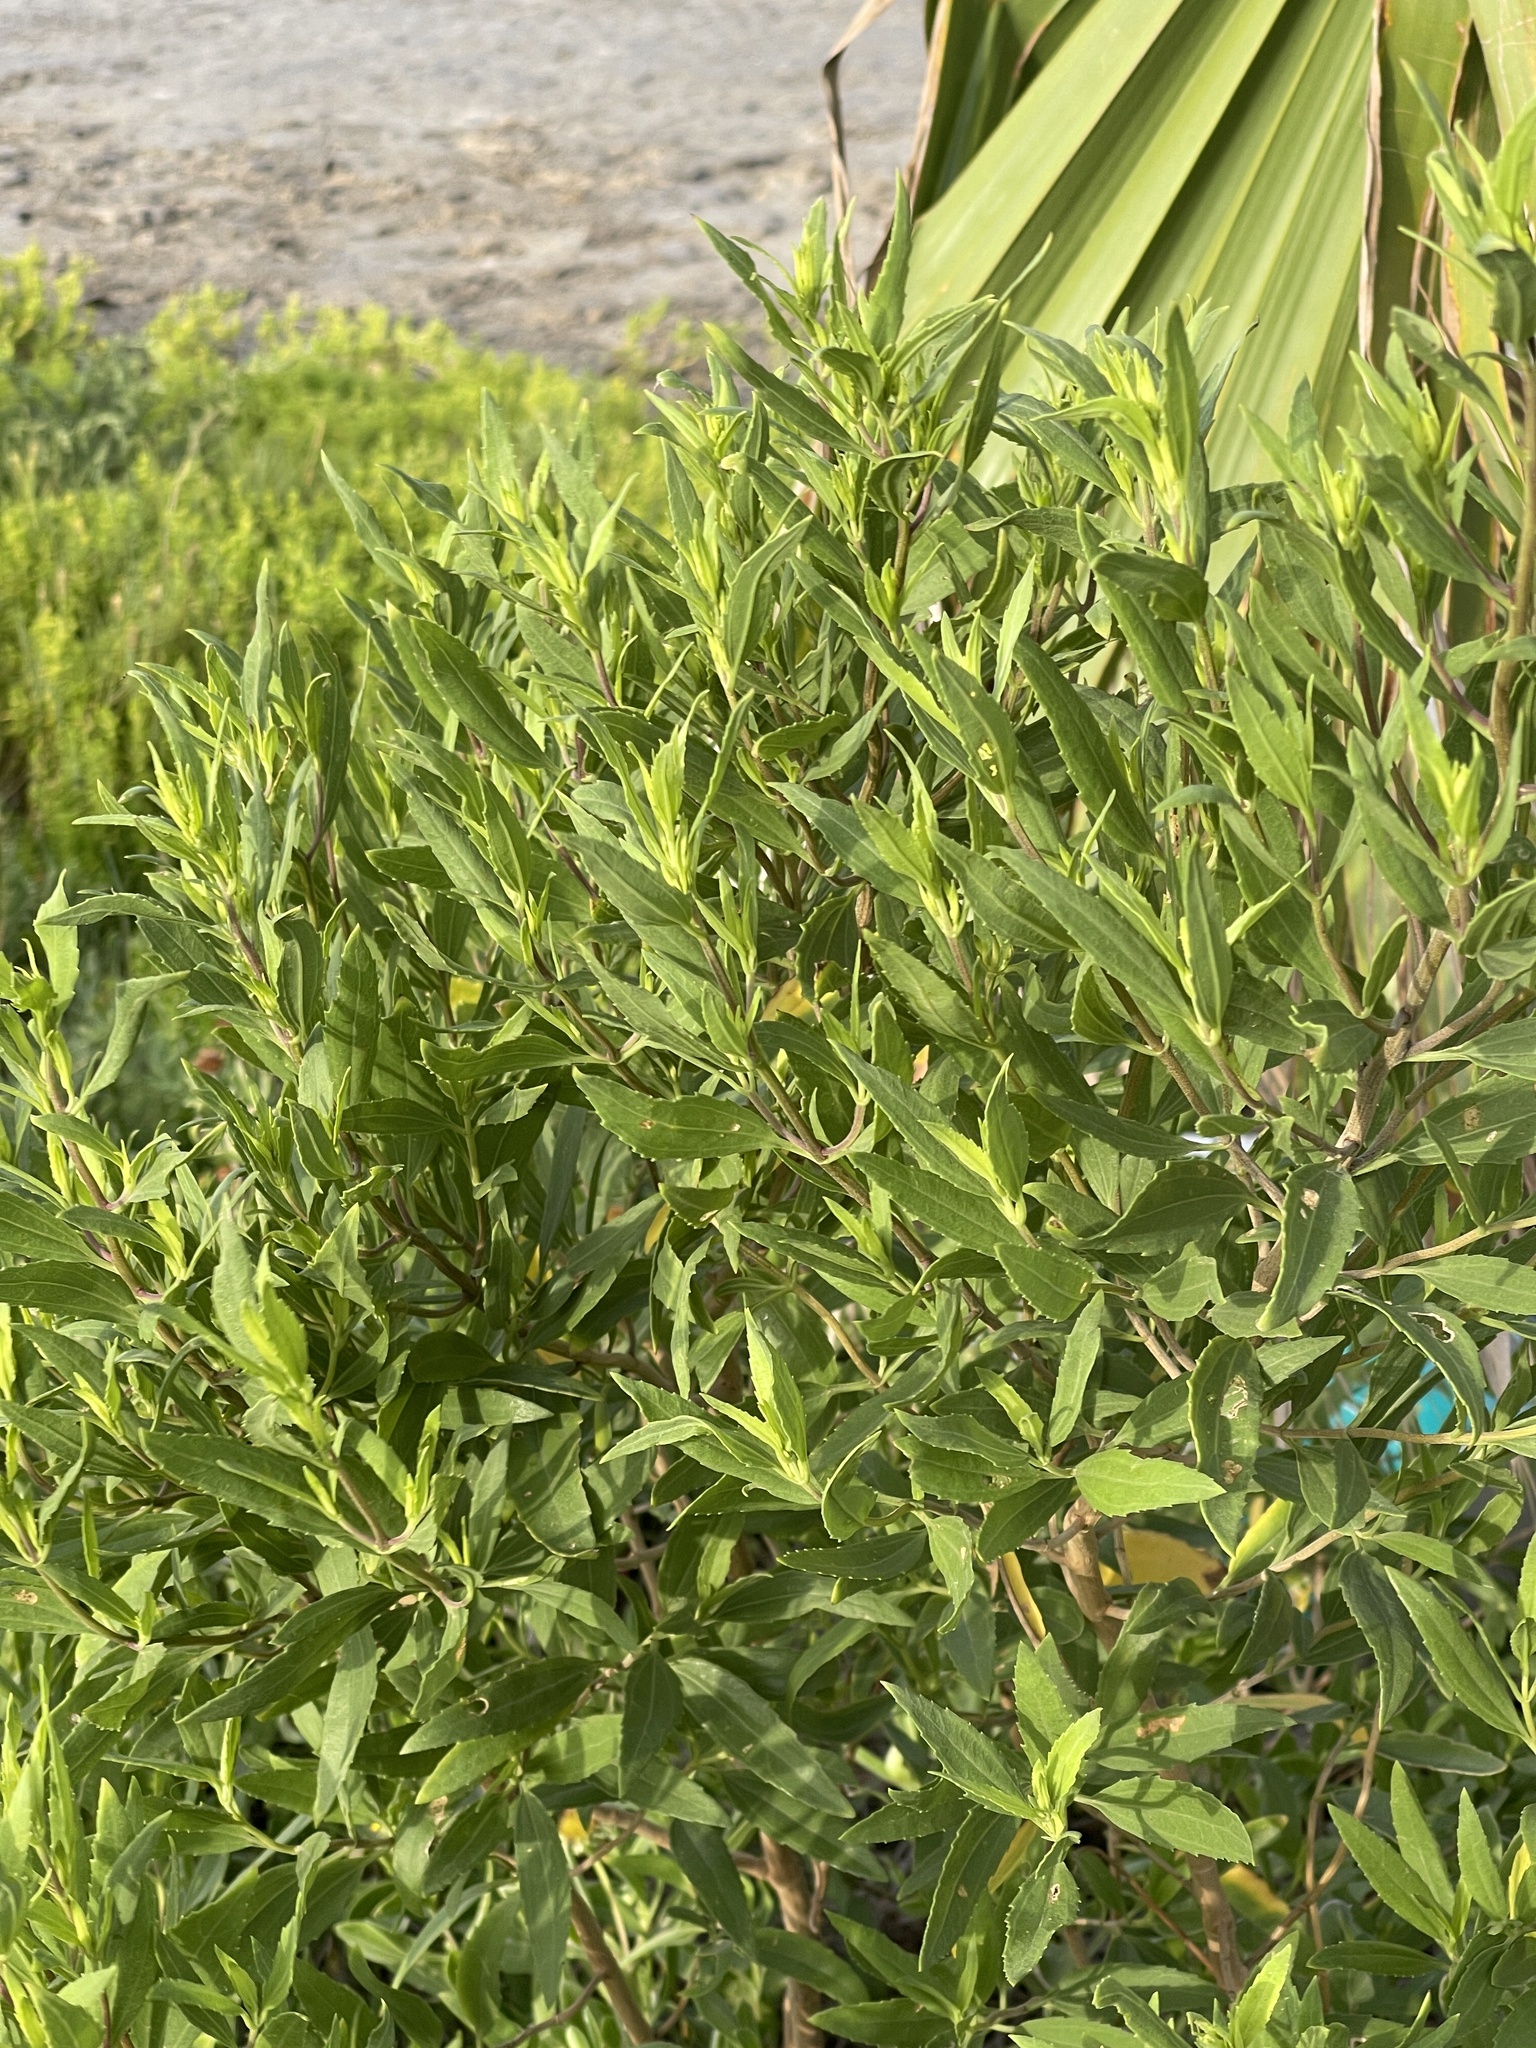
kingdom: Plantae
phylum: Tracheophyta
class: Magnoliopsida
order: Asterales
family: Asteraceae
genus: Iva
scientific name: Iva frutescens
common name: Big-leaved marsh-elder
